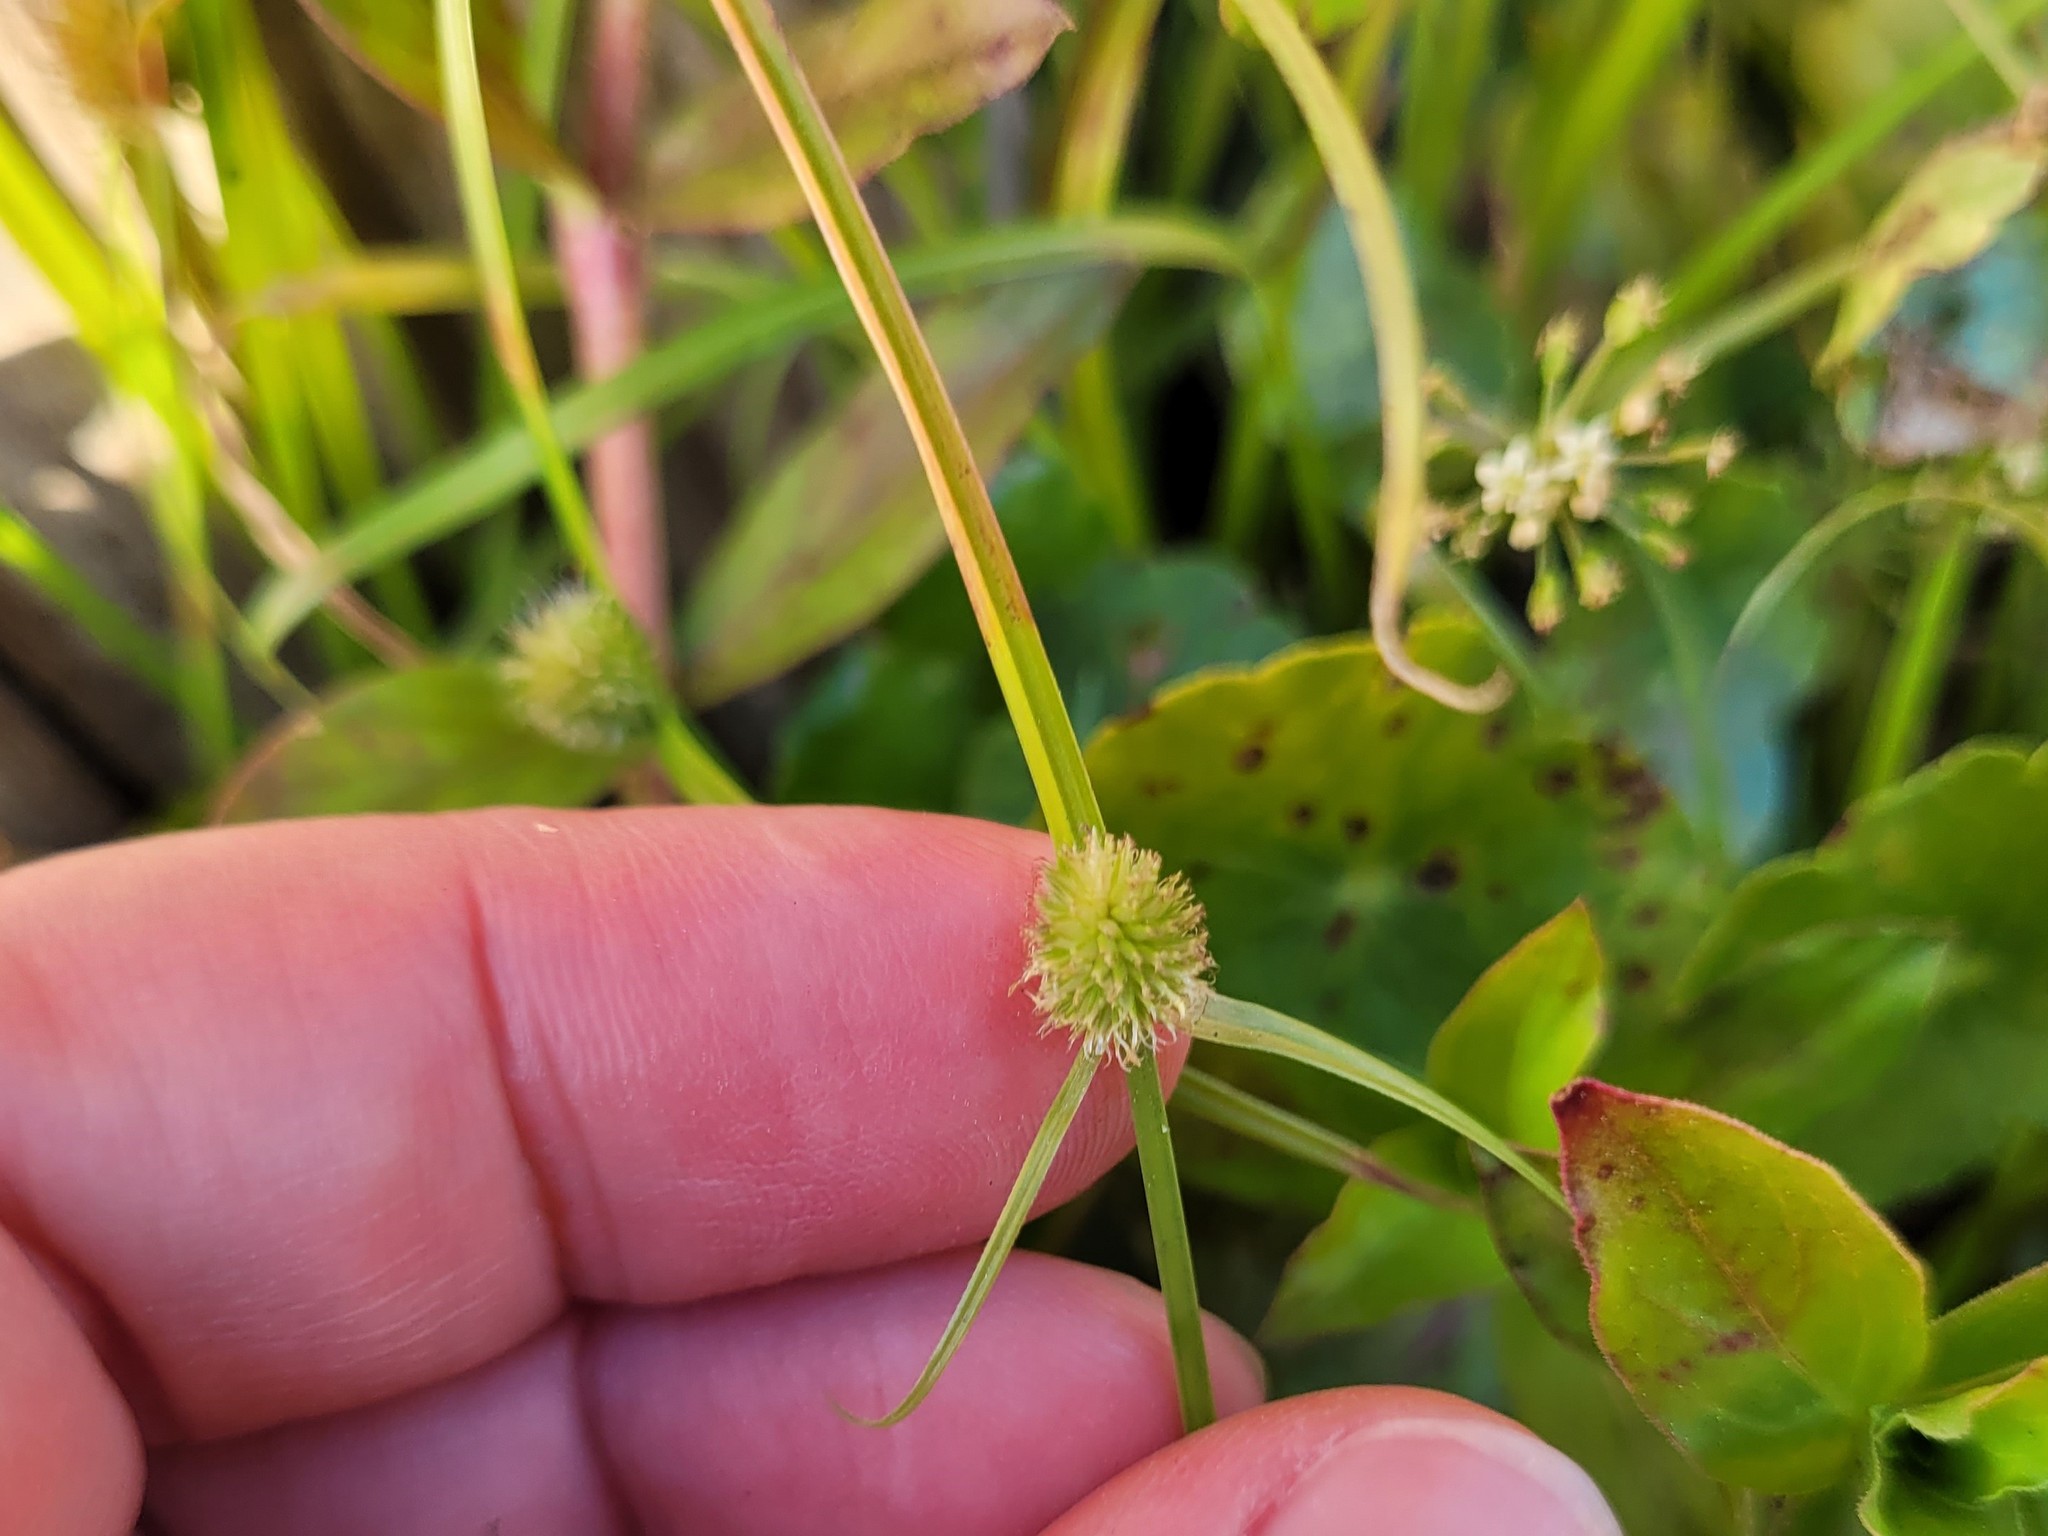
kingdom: Plantae
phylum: Tracheophyta
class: Liliopsida
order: Poales
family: Cyperaceae
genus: Cyperus
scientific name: Cyperus brevifolius
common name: Globe kyllinga
